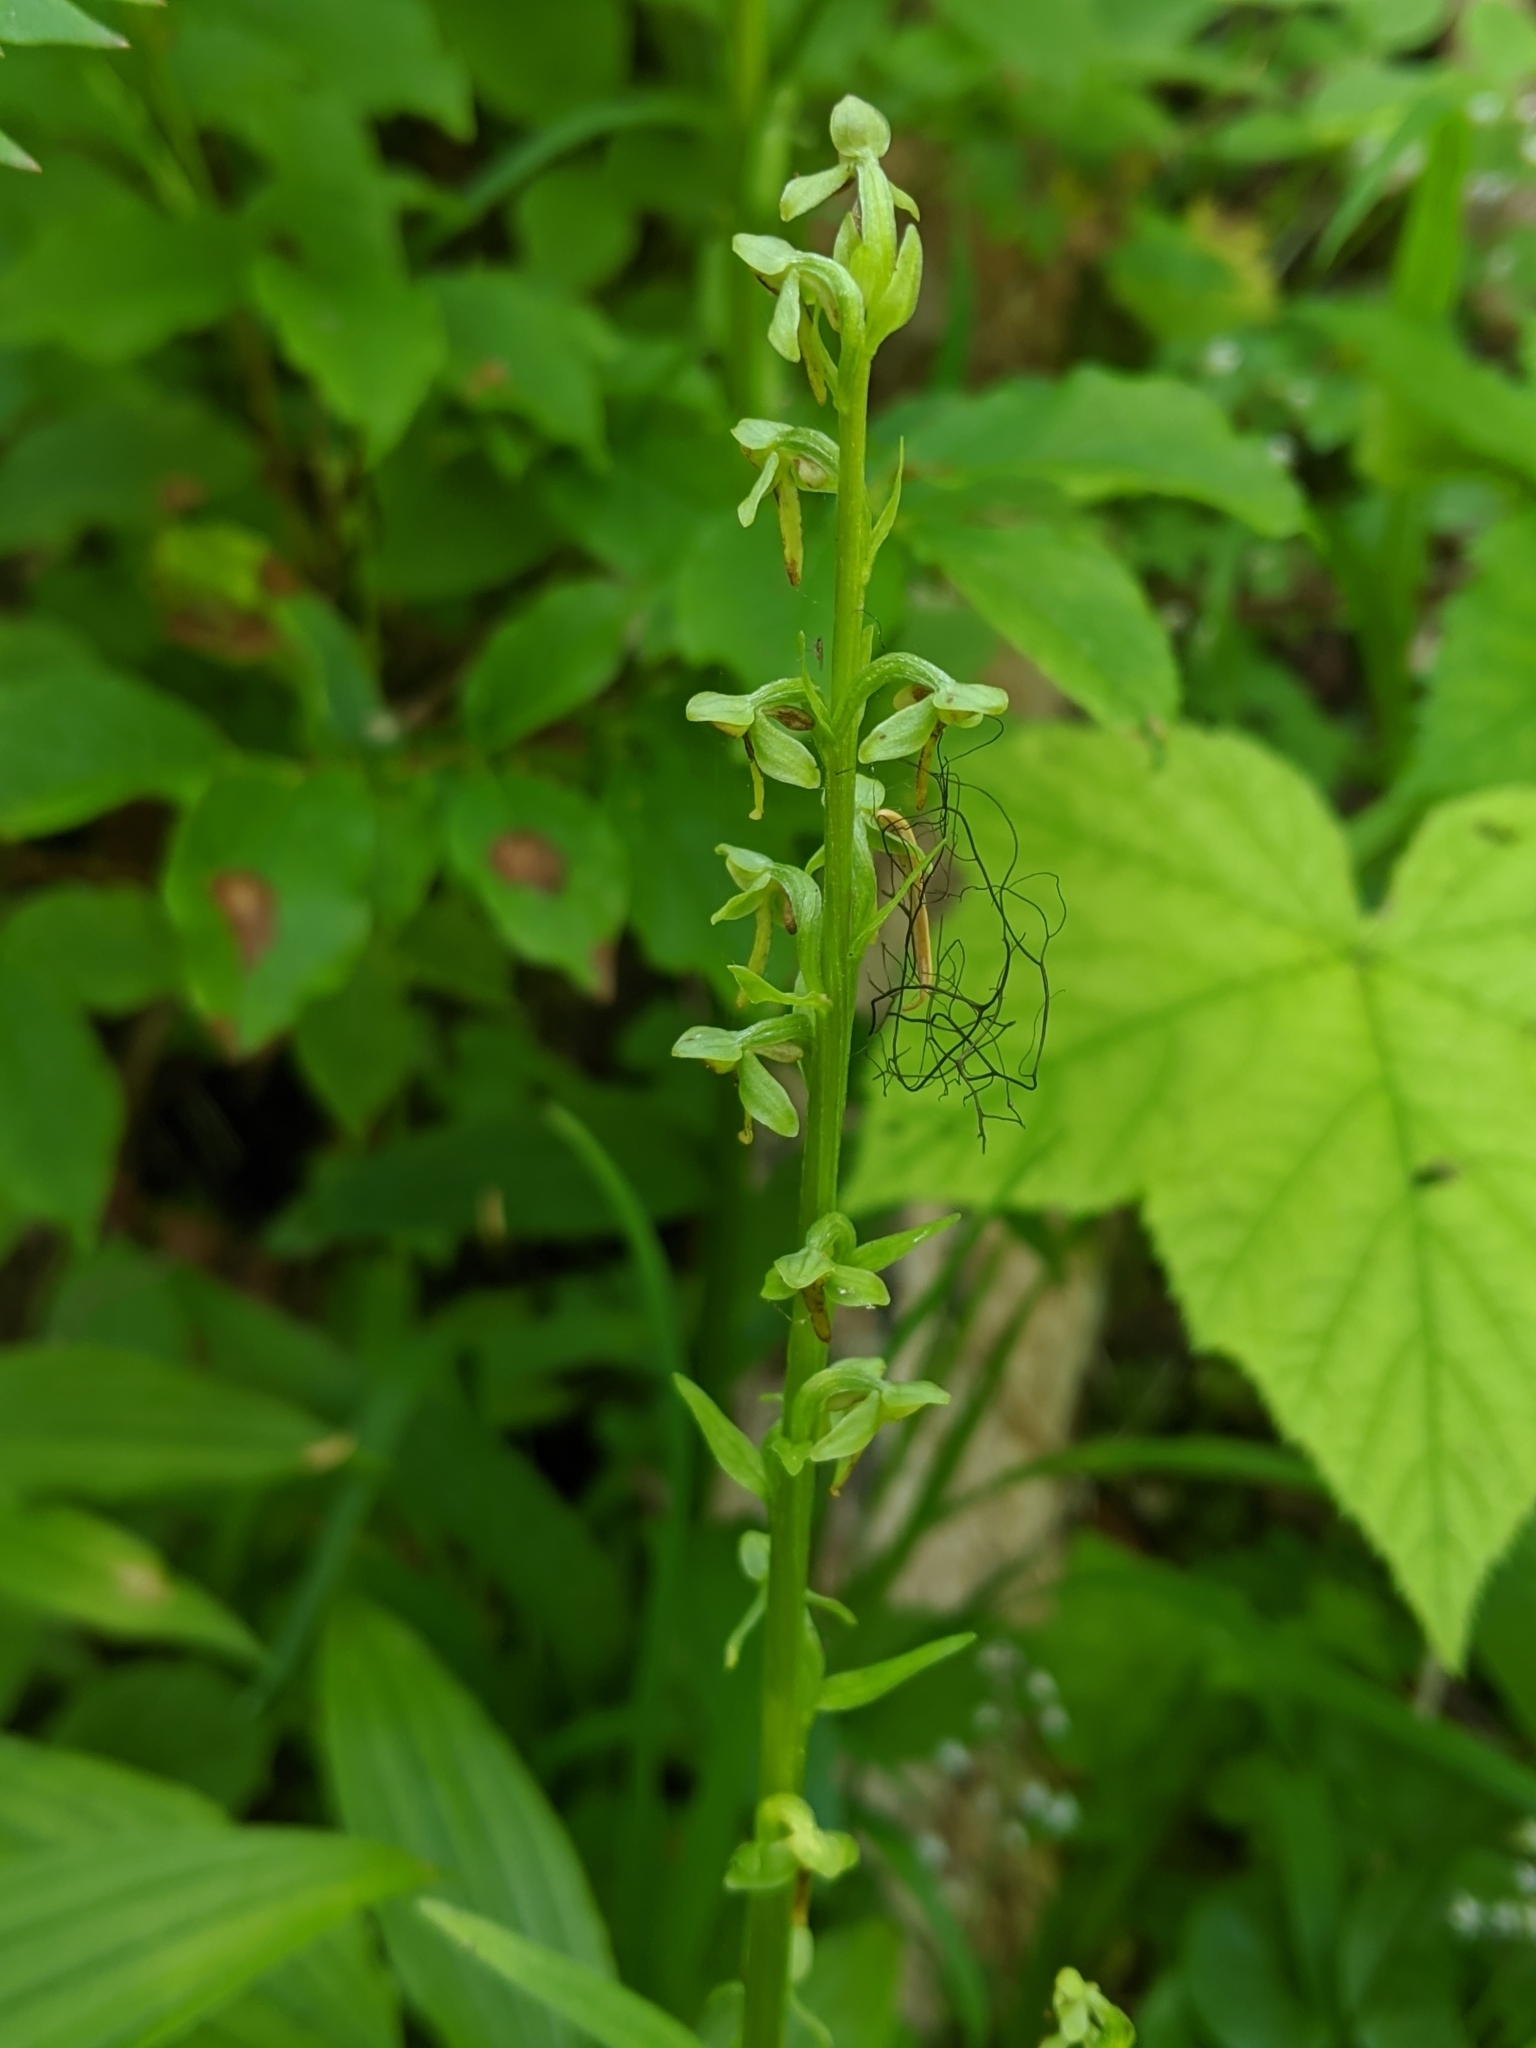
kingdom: Plantae
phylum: Tracheophyta
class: Liliopsida
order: Asparagales
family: Orchidaceae
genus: Platanthera
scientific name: Platanthera stricta
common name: Slender bog orchid
